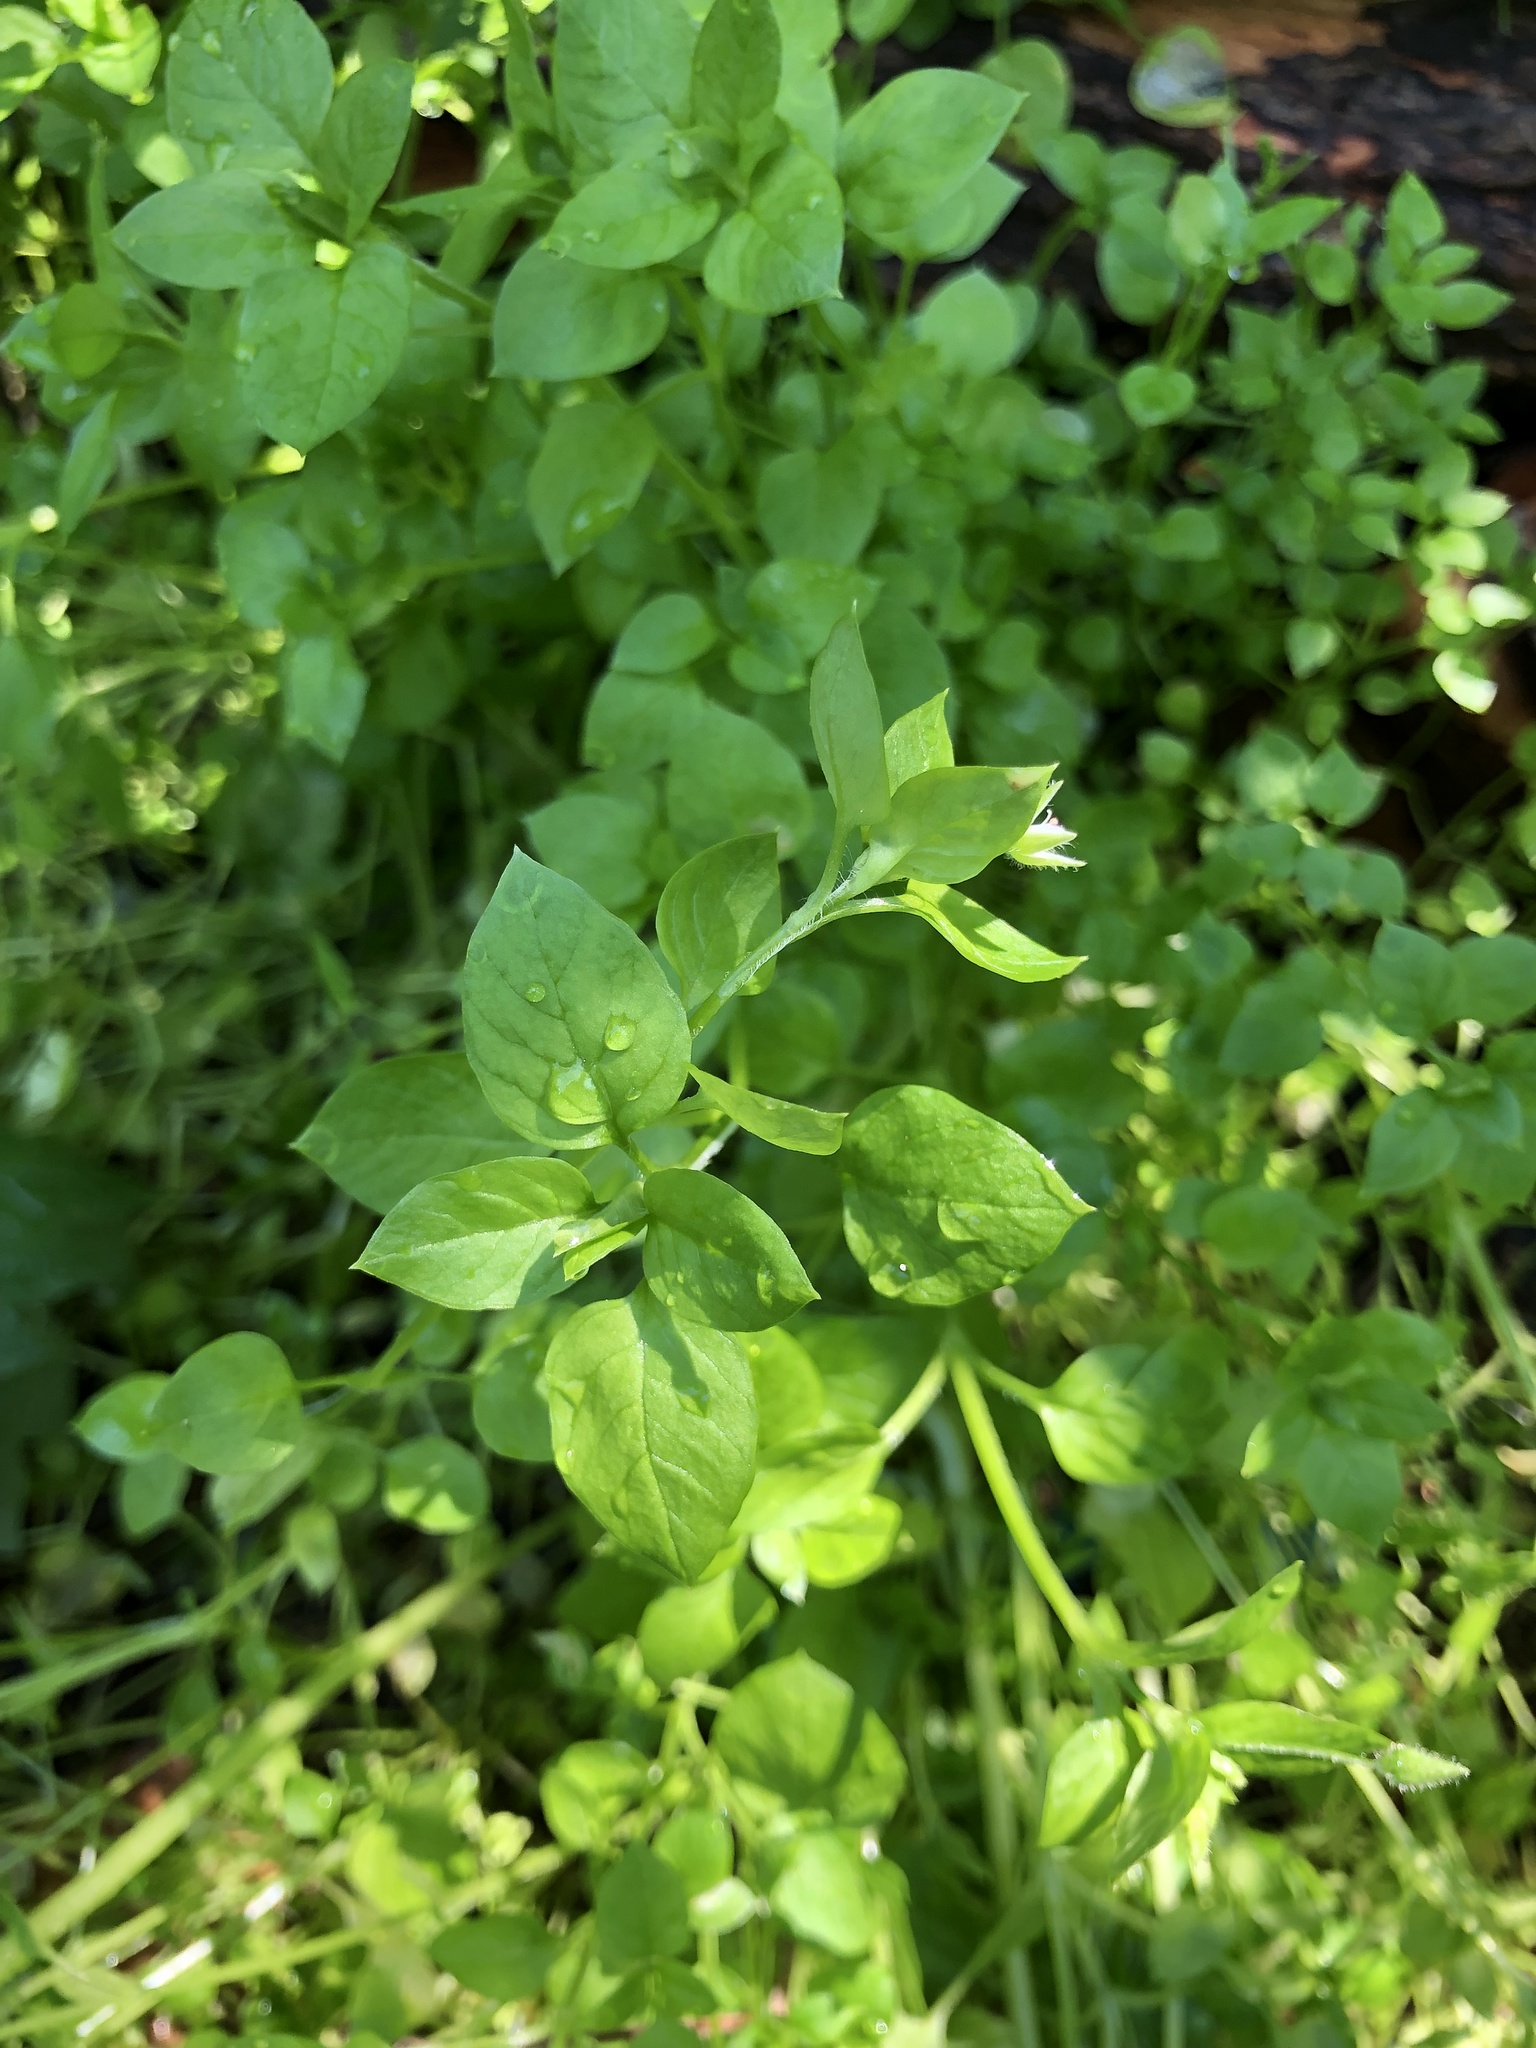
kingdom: Plantae
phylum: Tracheophyta
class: Magnoliopsida
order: Caryophyllales
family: Caryophyllaceae
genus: Stellaria
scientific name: Stellaria media
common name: Common chickweed
